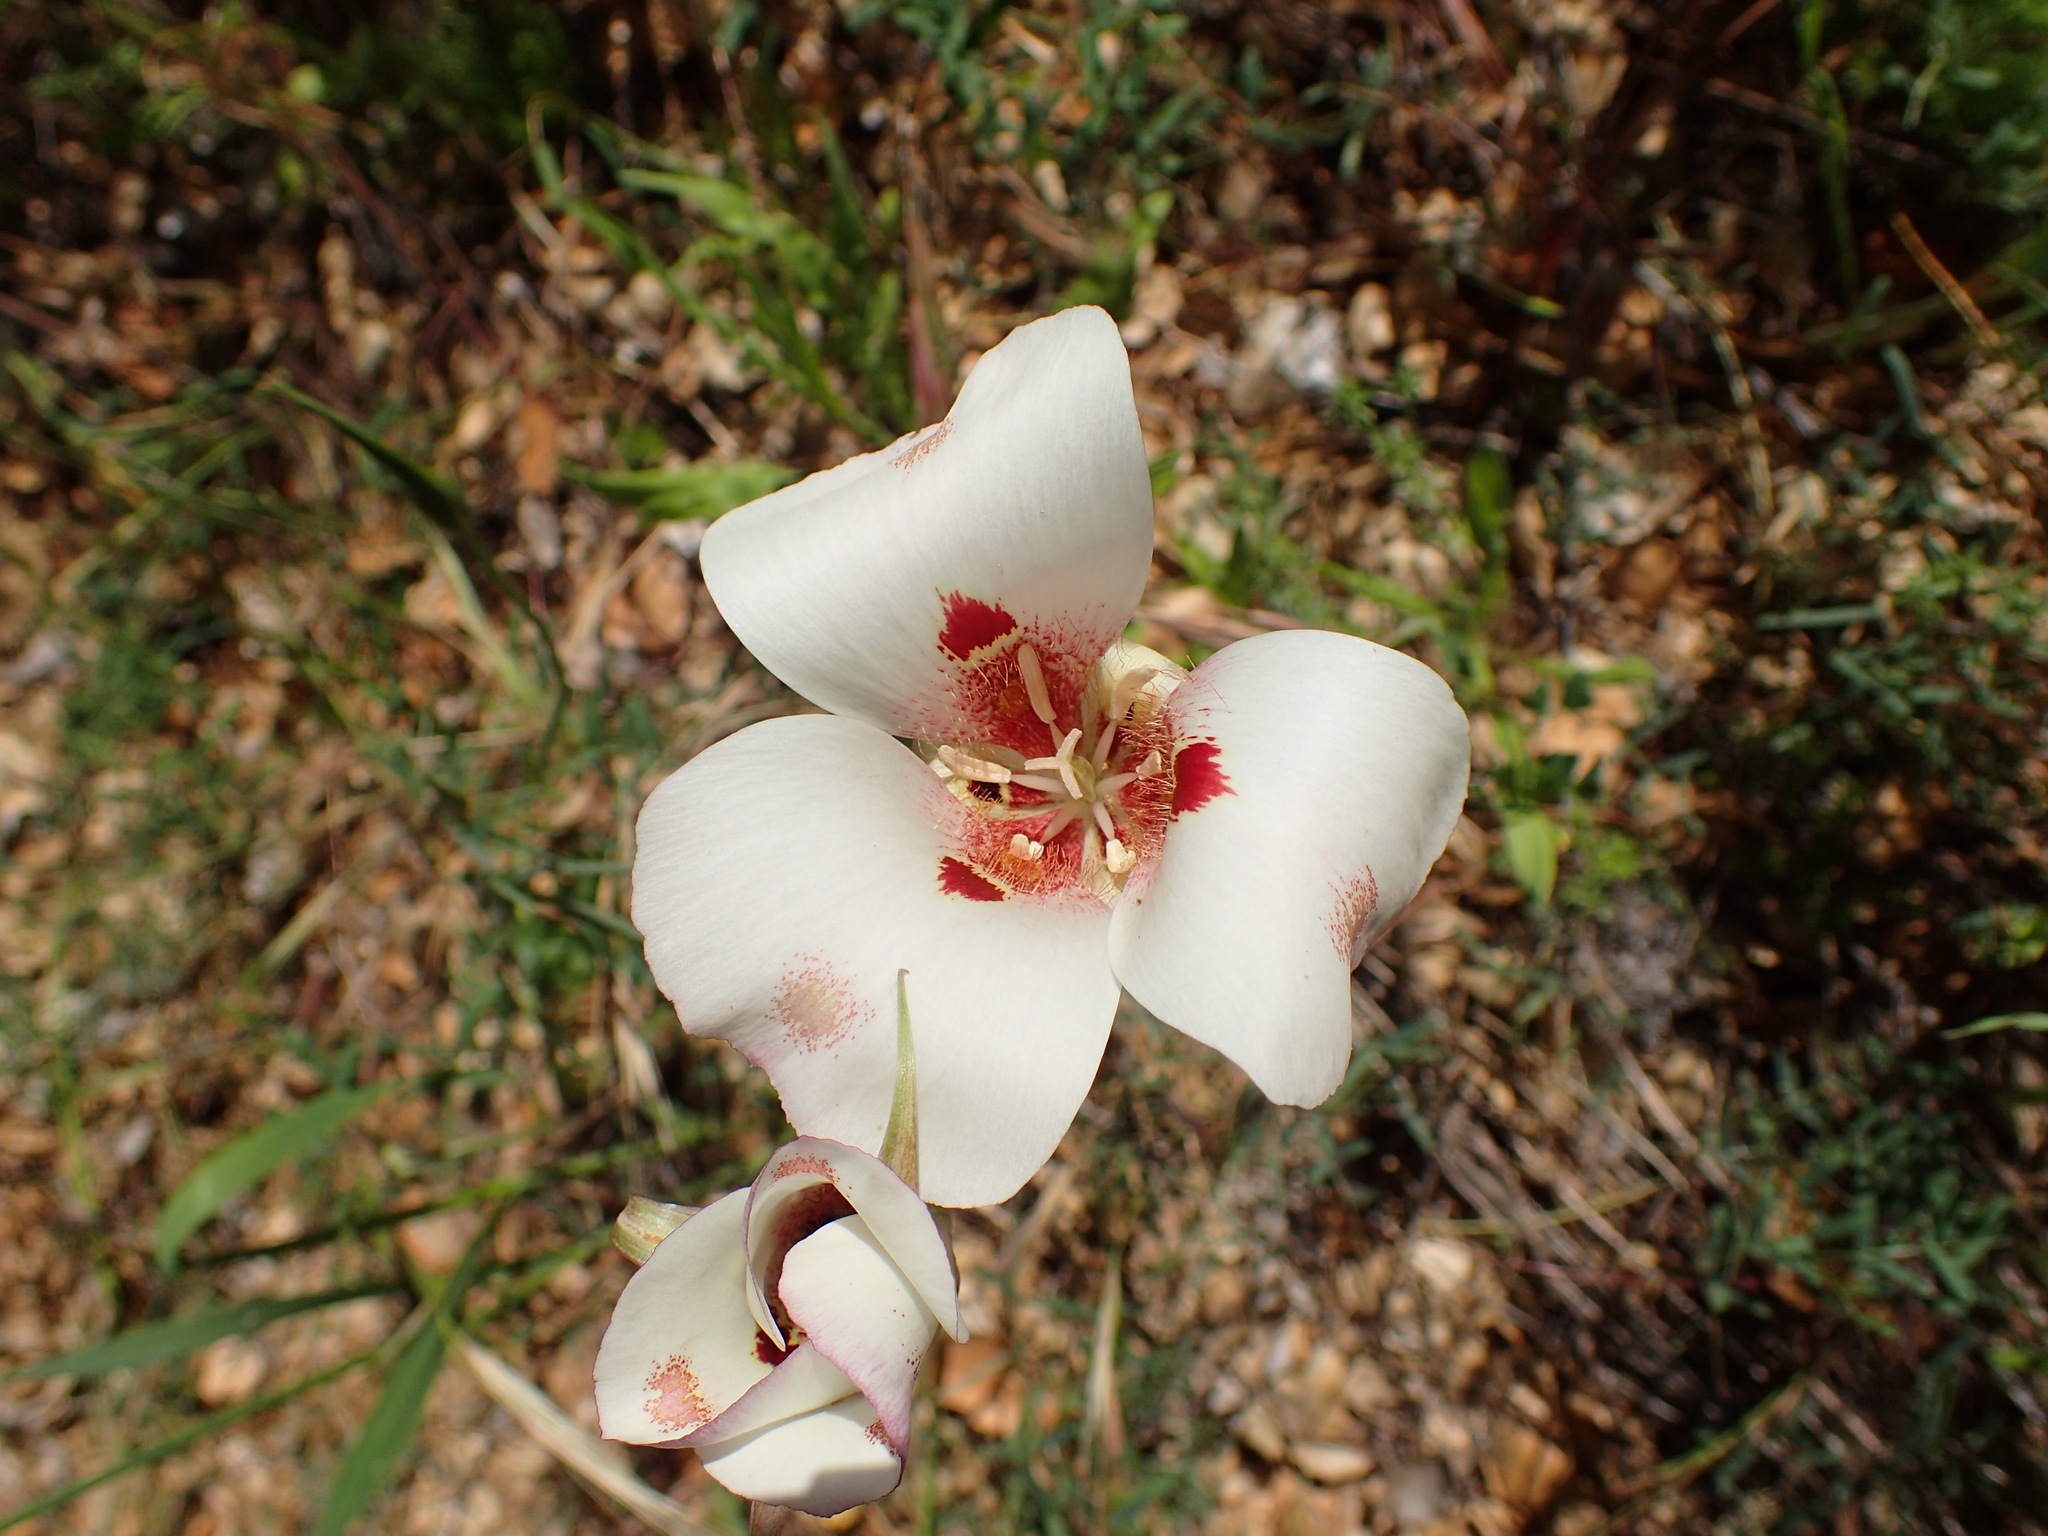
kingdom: Plantae
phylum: Tracheophyta
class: Liliopsida
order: Liliales
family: Liliaceae
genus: Calochortus
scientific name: Calochortus venustus
